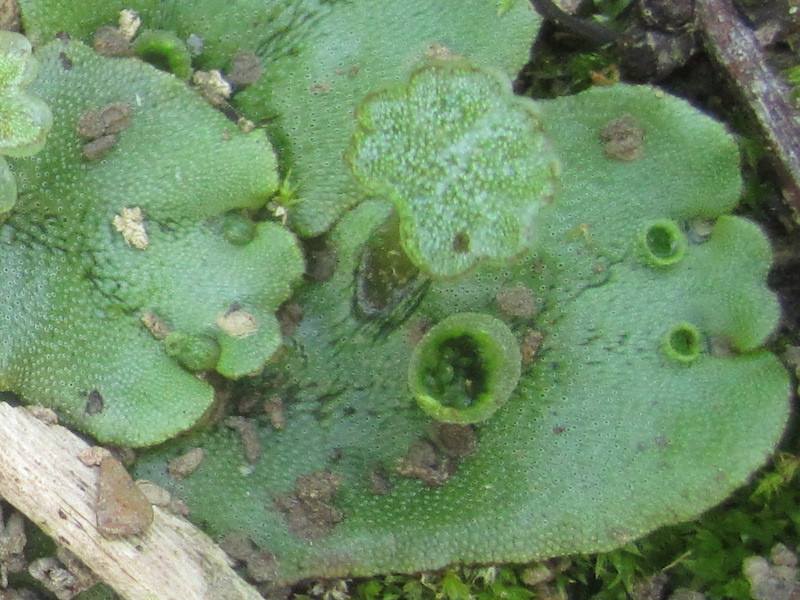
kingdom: Plantae
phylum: Marchantiophyta
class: Marchantiopsida
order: Marchantiales
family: Marchantiaceae
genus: Marchantia
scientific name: Marchantia polymorpha
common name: Common liverwort
